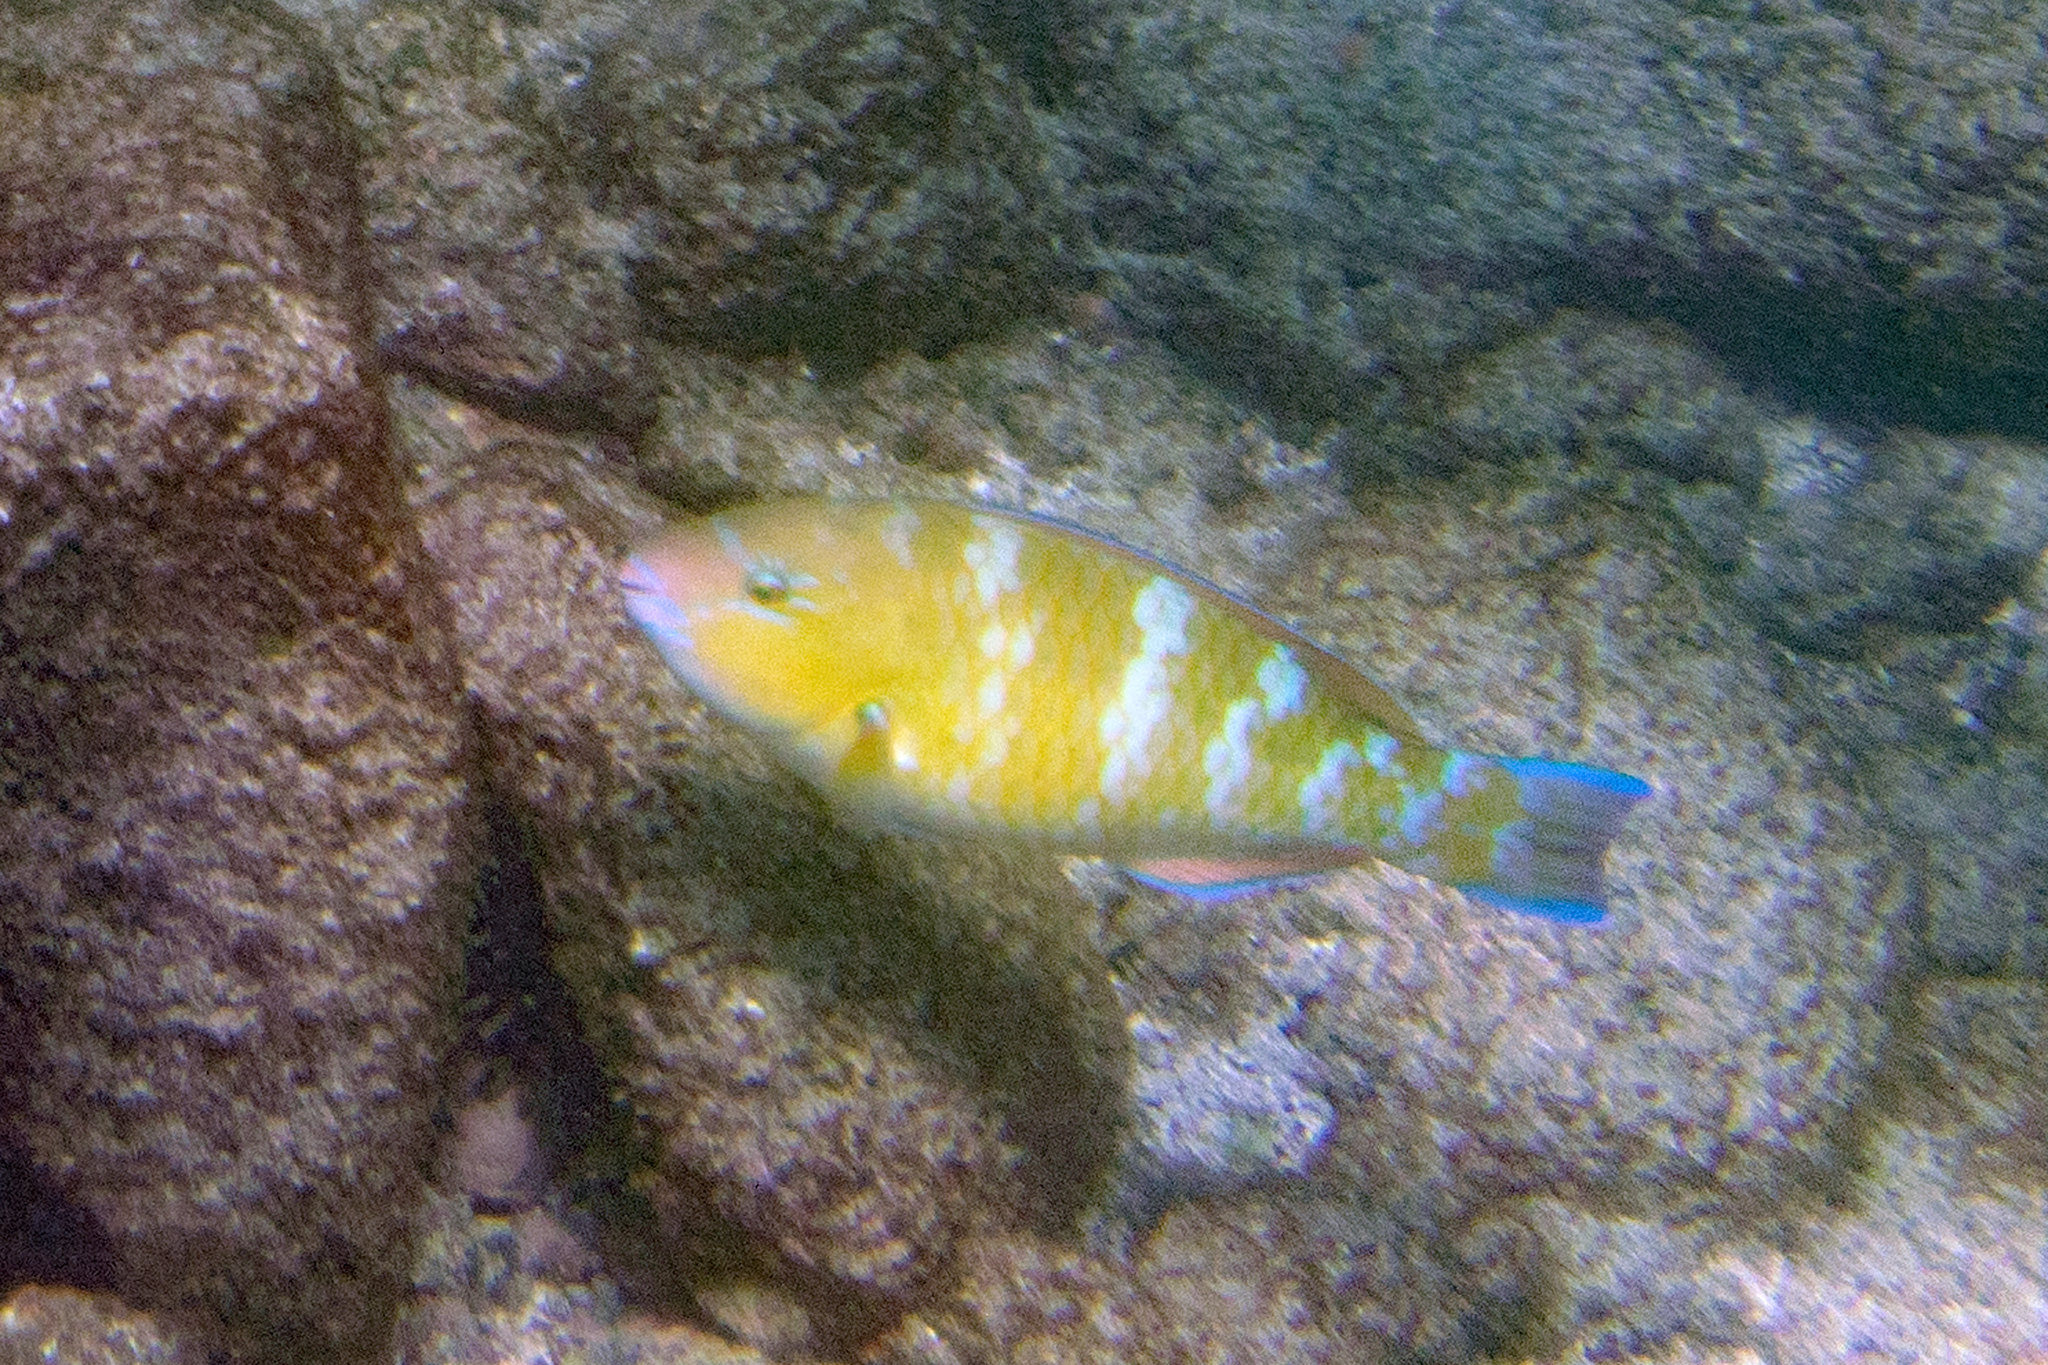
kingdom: Animalia
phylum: Chordata
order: Perciformes
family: Scaridae
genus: Scarus
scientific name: Scarus ghobban
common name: Blue-barred parrotfish
